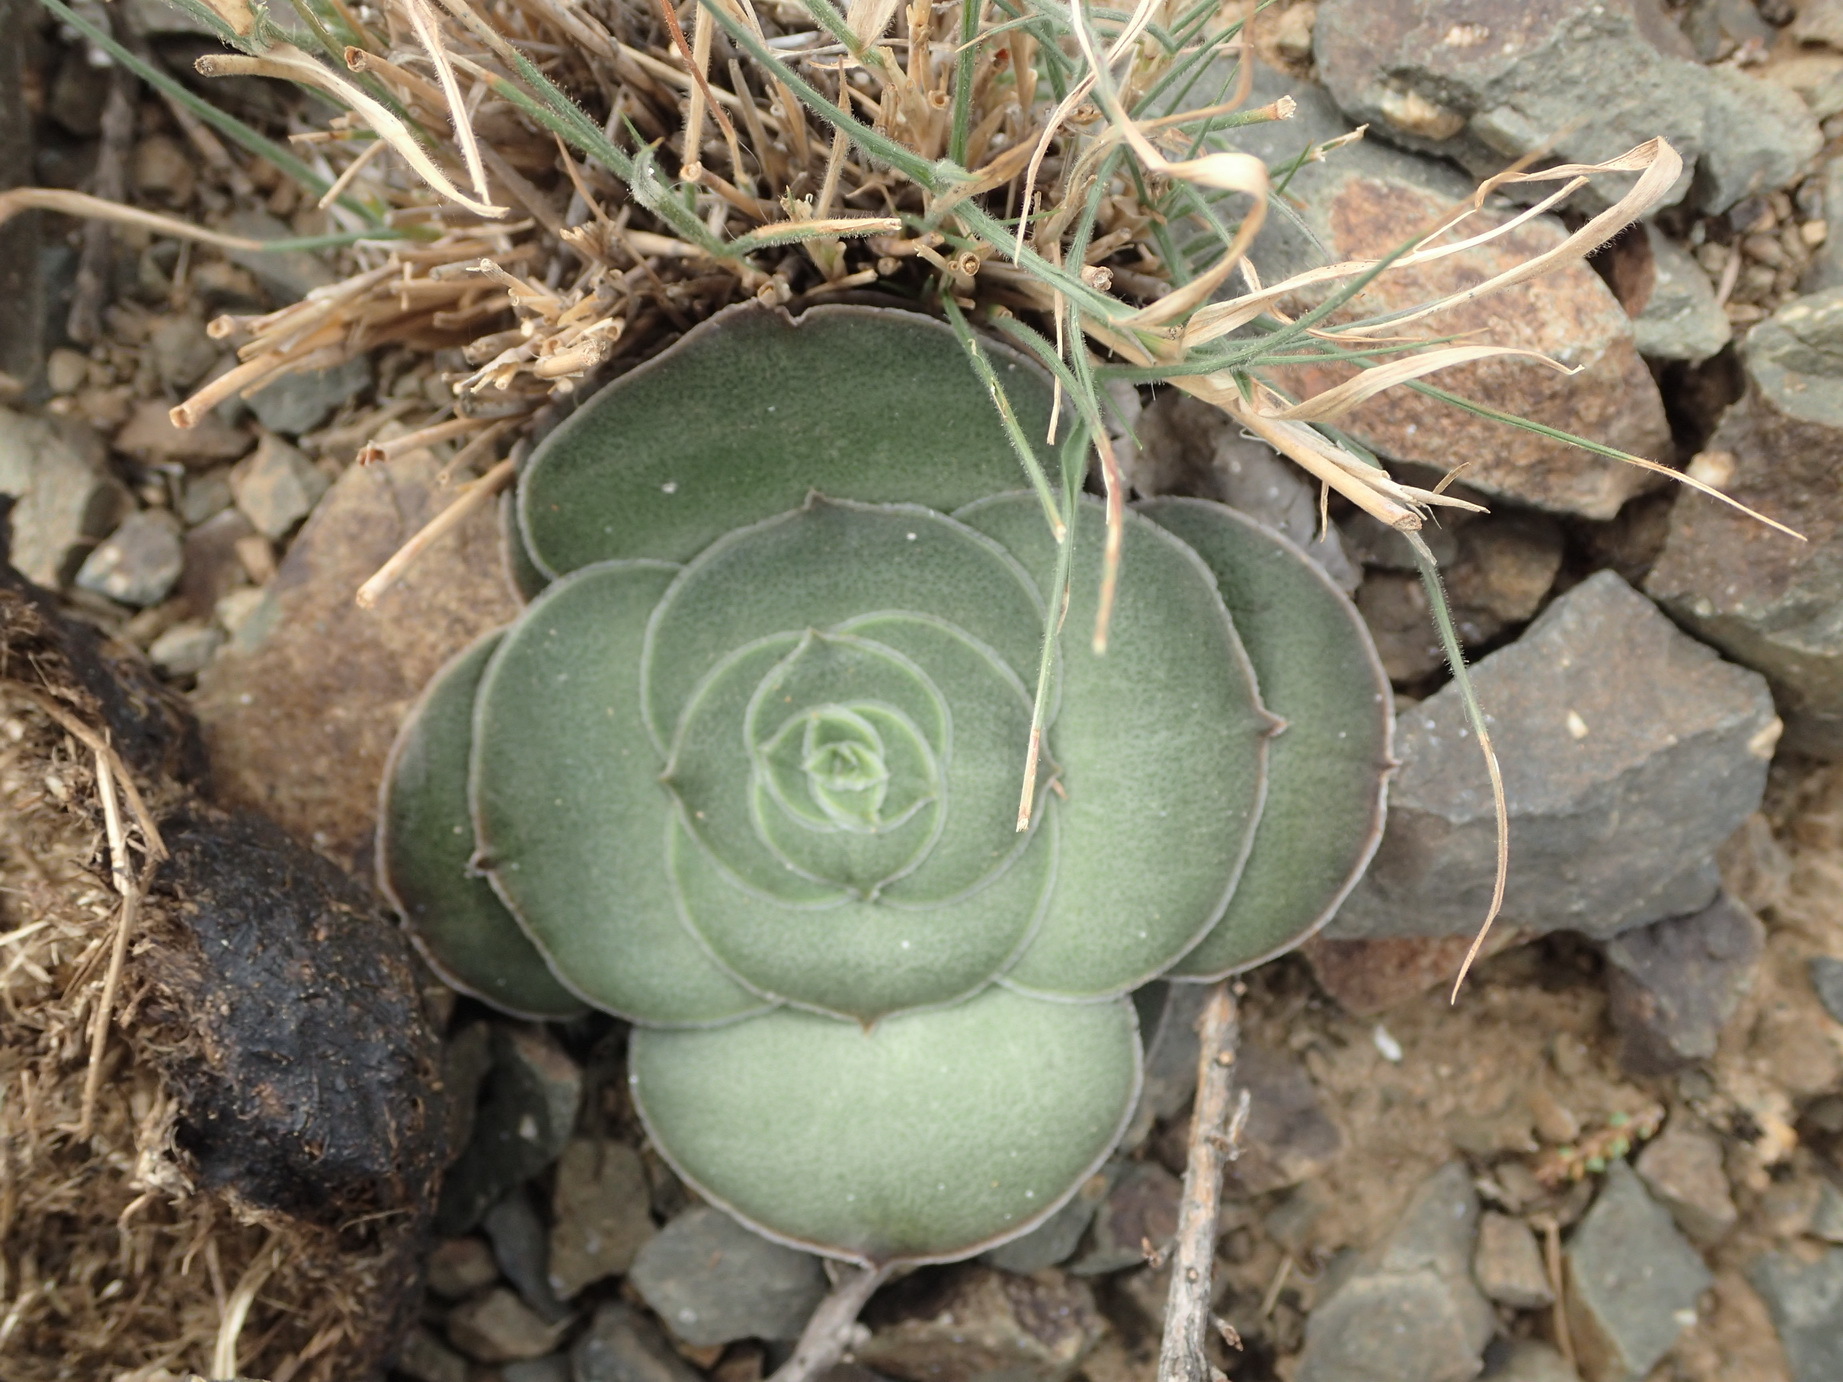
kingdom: Plantae
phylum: Tracheophyta
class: Magnoliopsida
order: Saxifragales
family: Crassulaceae
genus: Crassula
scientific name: Crassula hemisphaerica
